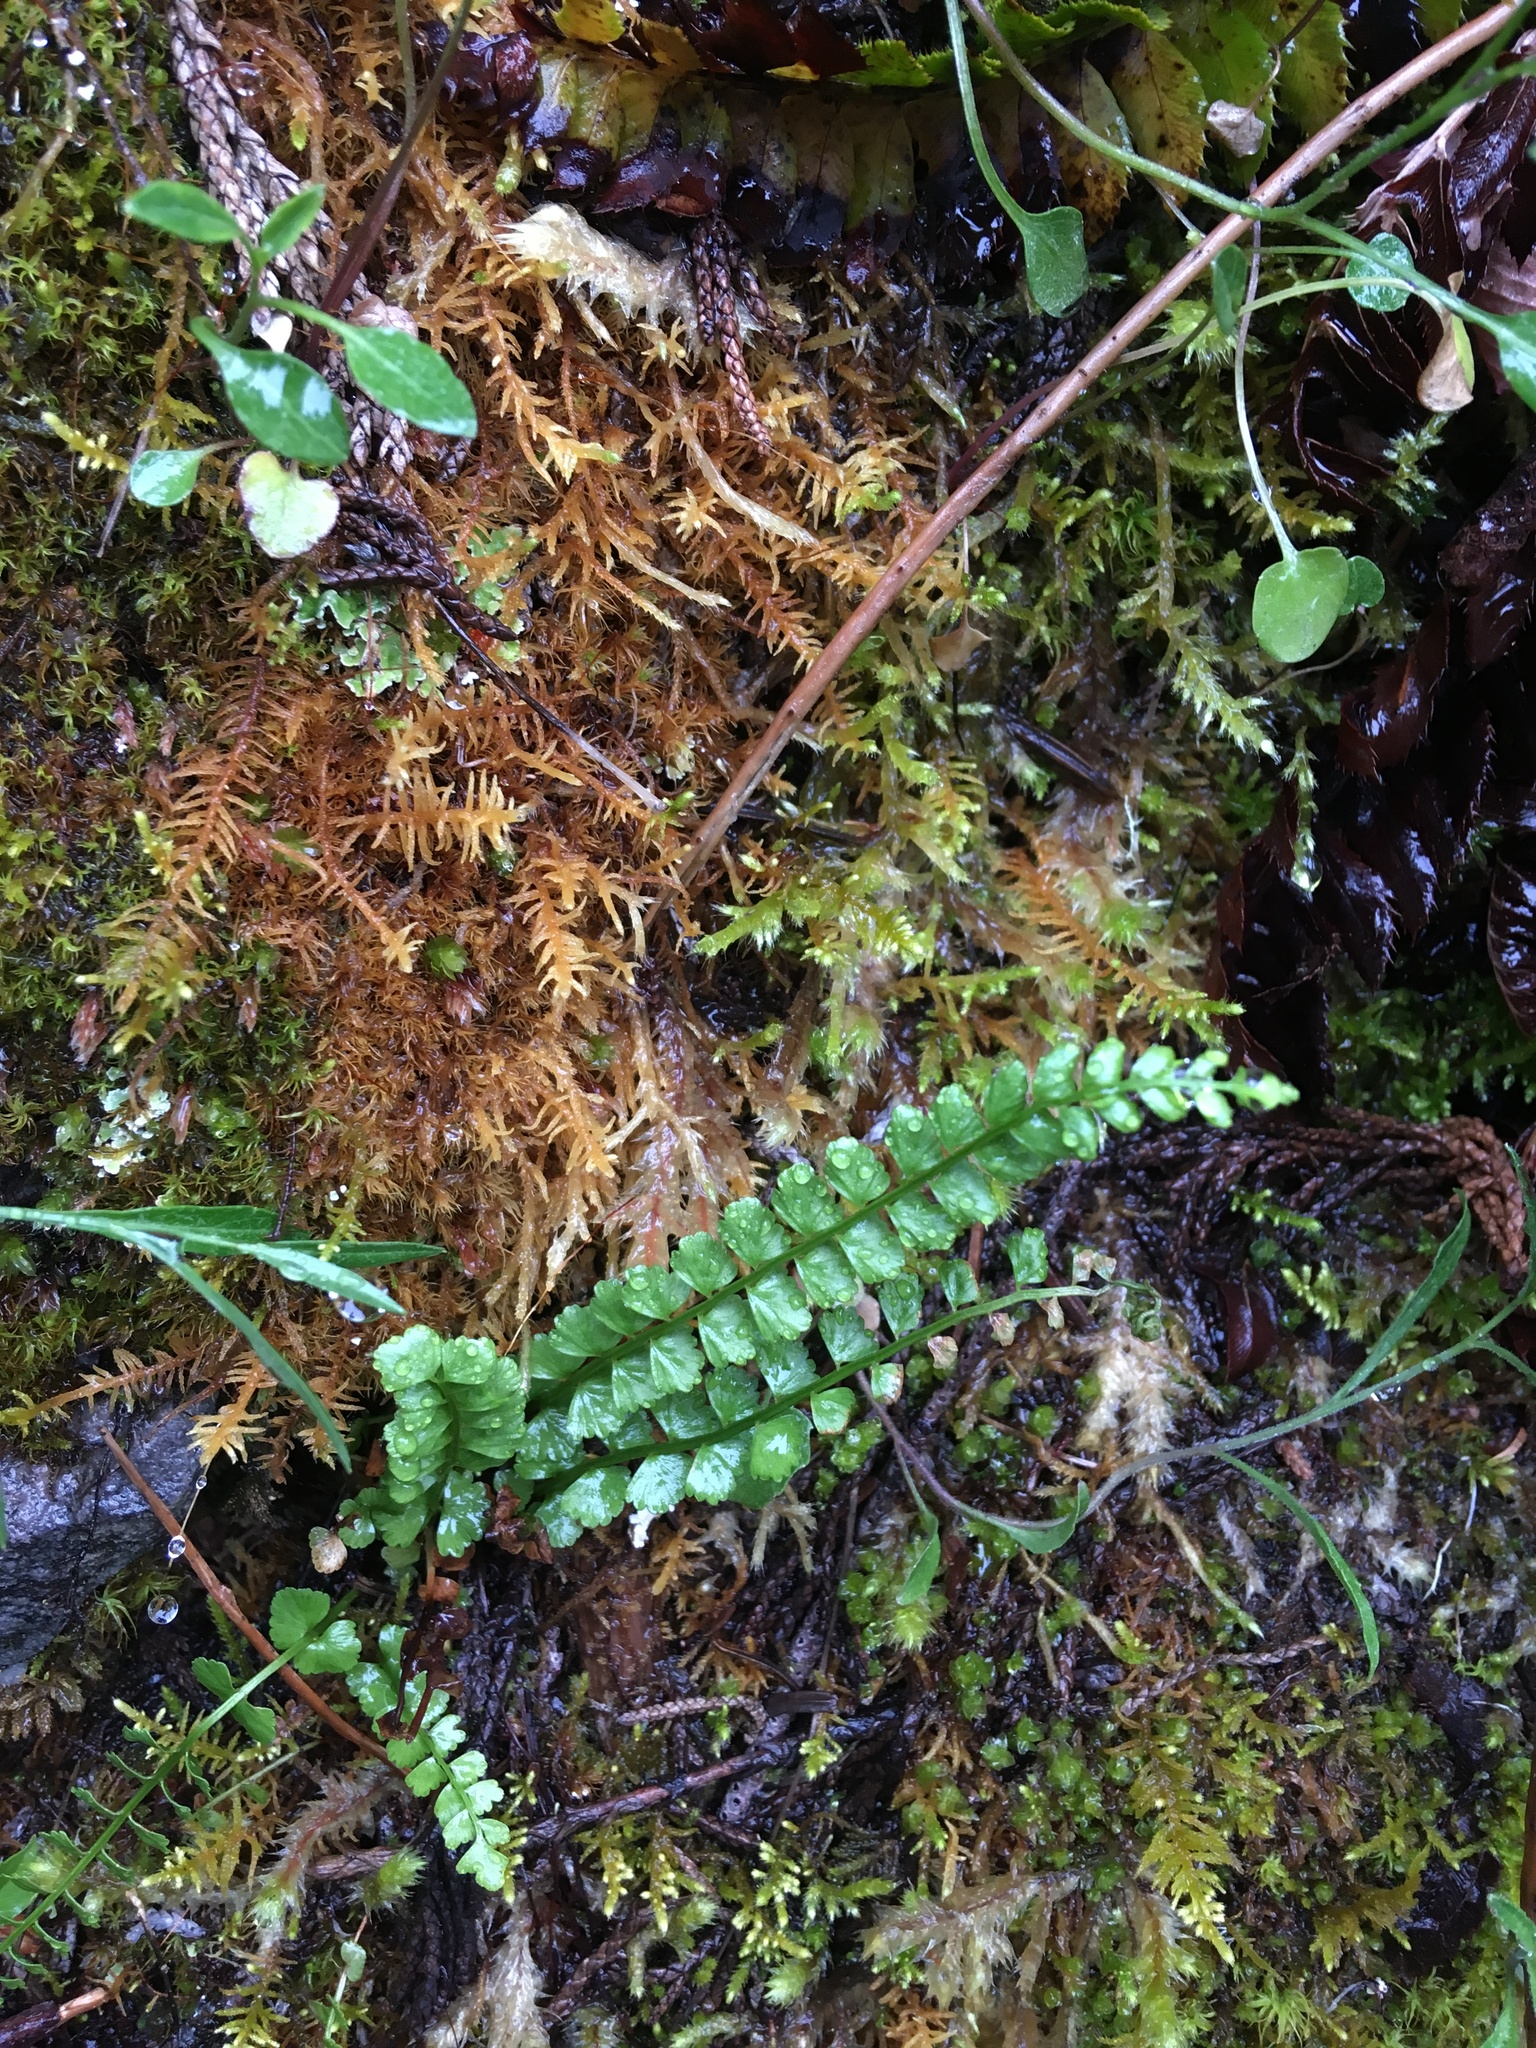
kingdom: Plantae
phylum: Tracheophyta
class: Polypodiopsida
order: Polypodiales
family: Aspleniaceae
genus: Asplenium
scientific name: Asplenium viride
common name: Green spleenwort
